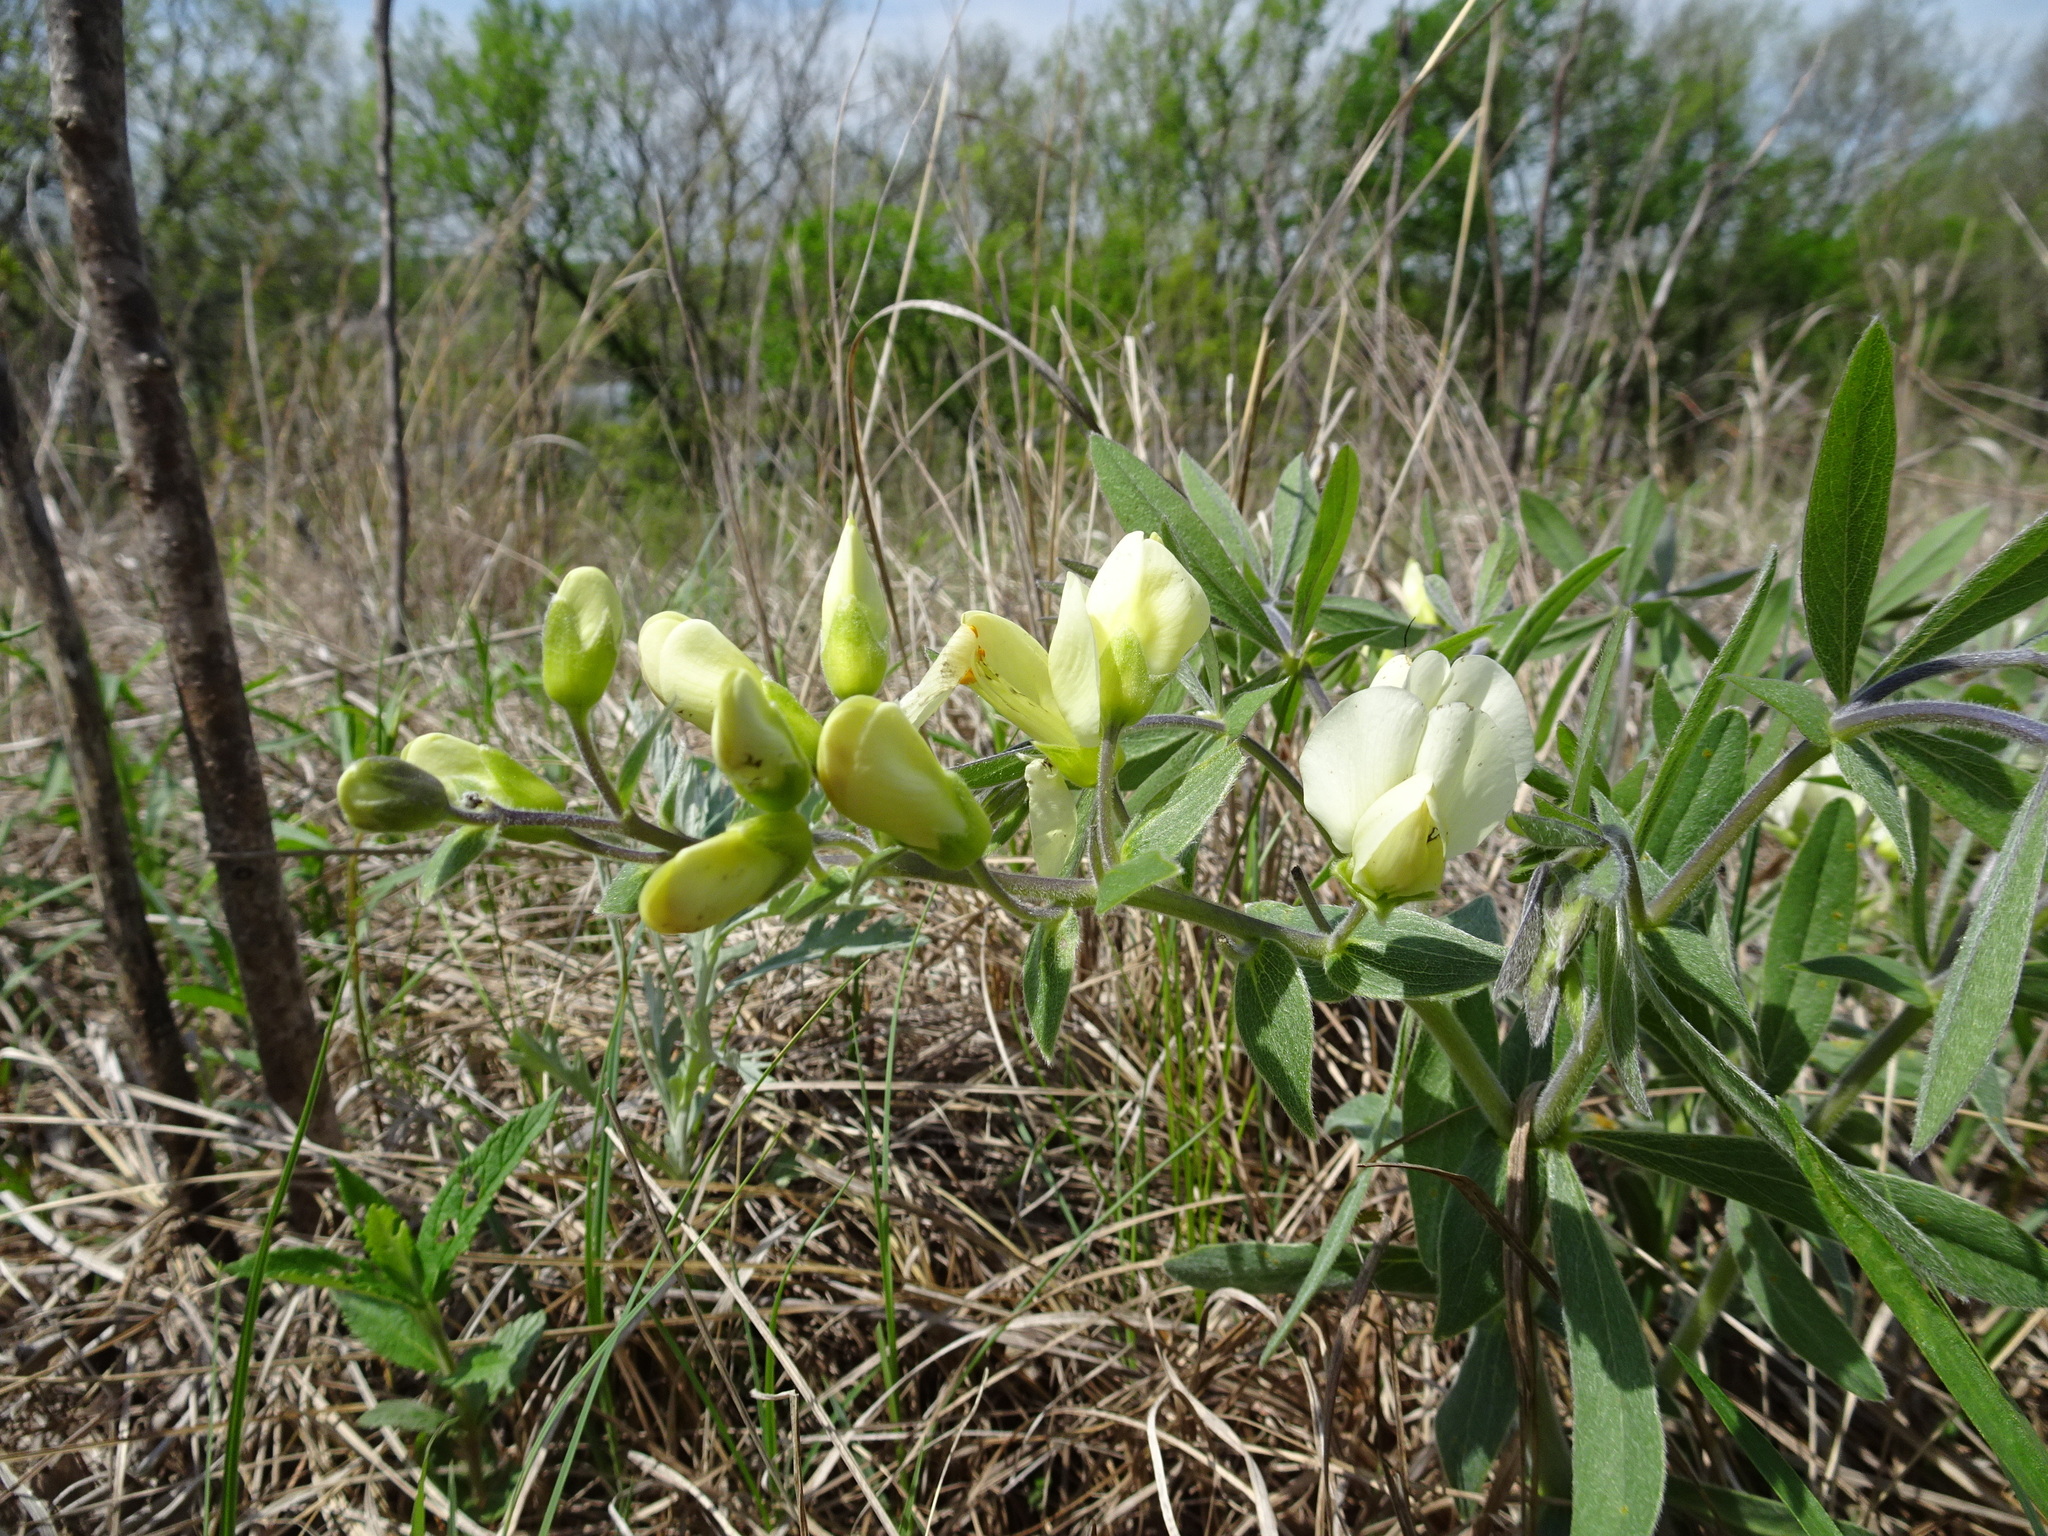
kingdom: Plantae
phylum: Tracheophyta
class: Magnoliopsida
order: Fabales
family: Fabaceae
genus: Baptisia
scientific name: Baptisia bracteata
